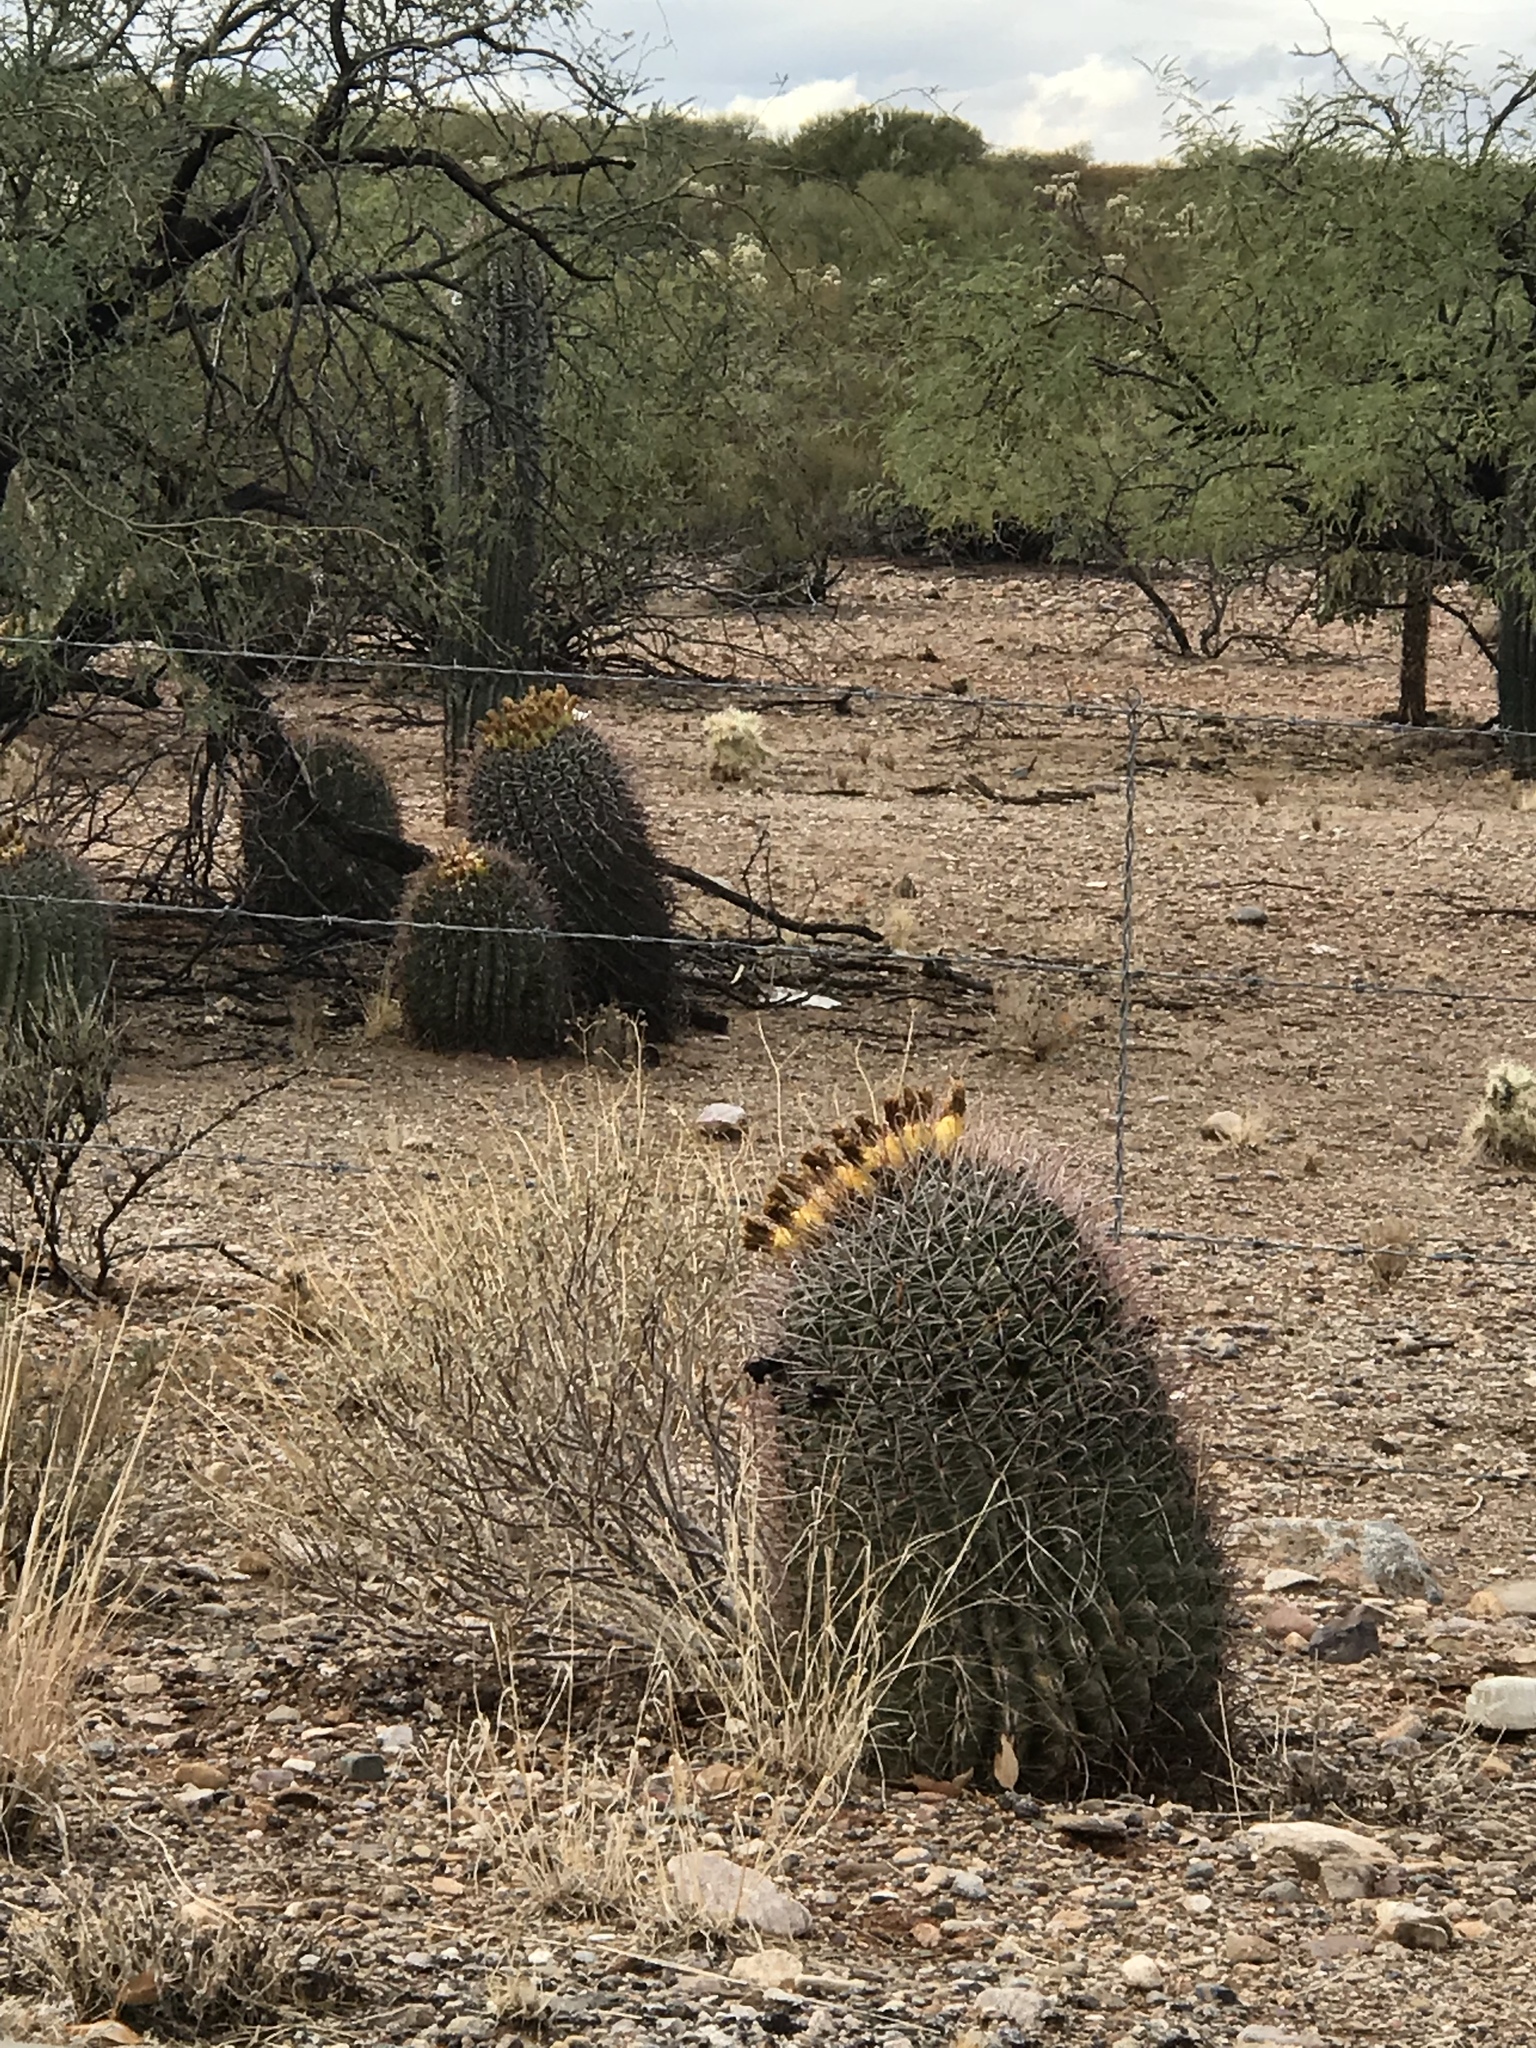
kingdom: Plantae
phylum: Tracheophyta
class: Magnoliopsida
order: Caryophyllales
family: Cactaceae
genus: Ferocactus
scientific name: Ferocactus wislizeni
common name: Candy barrel cactus
